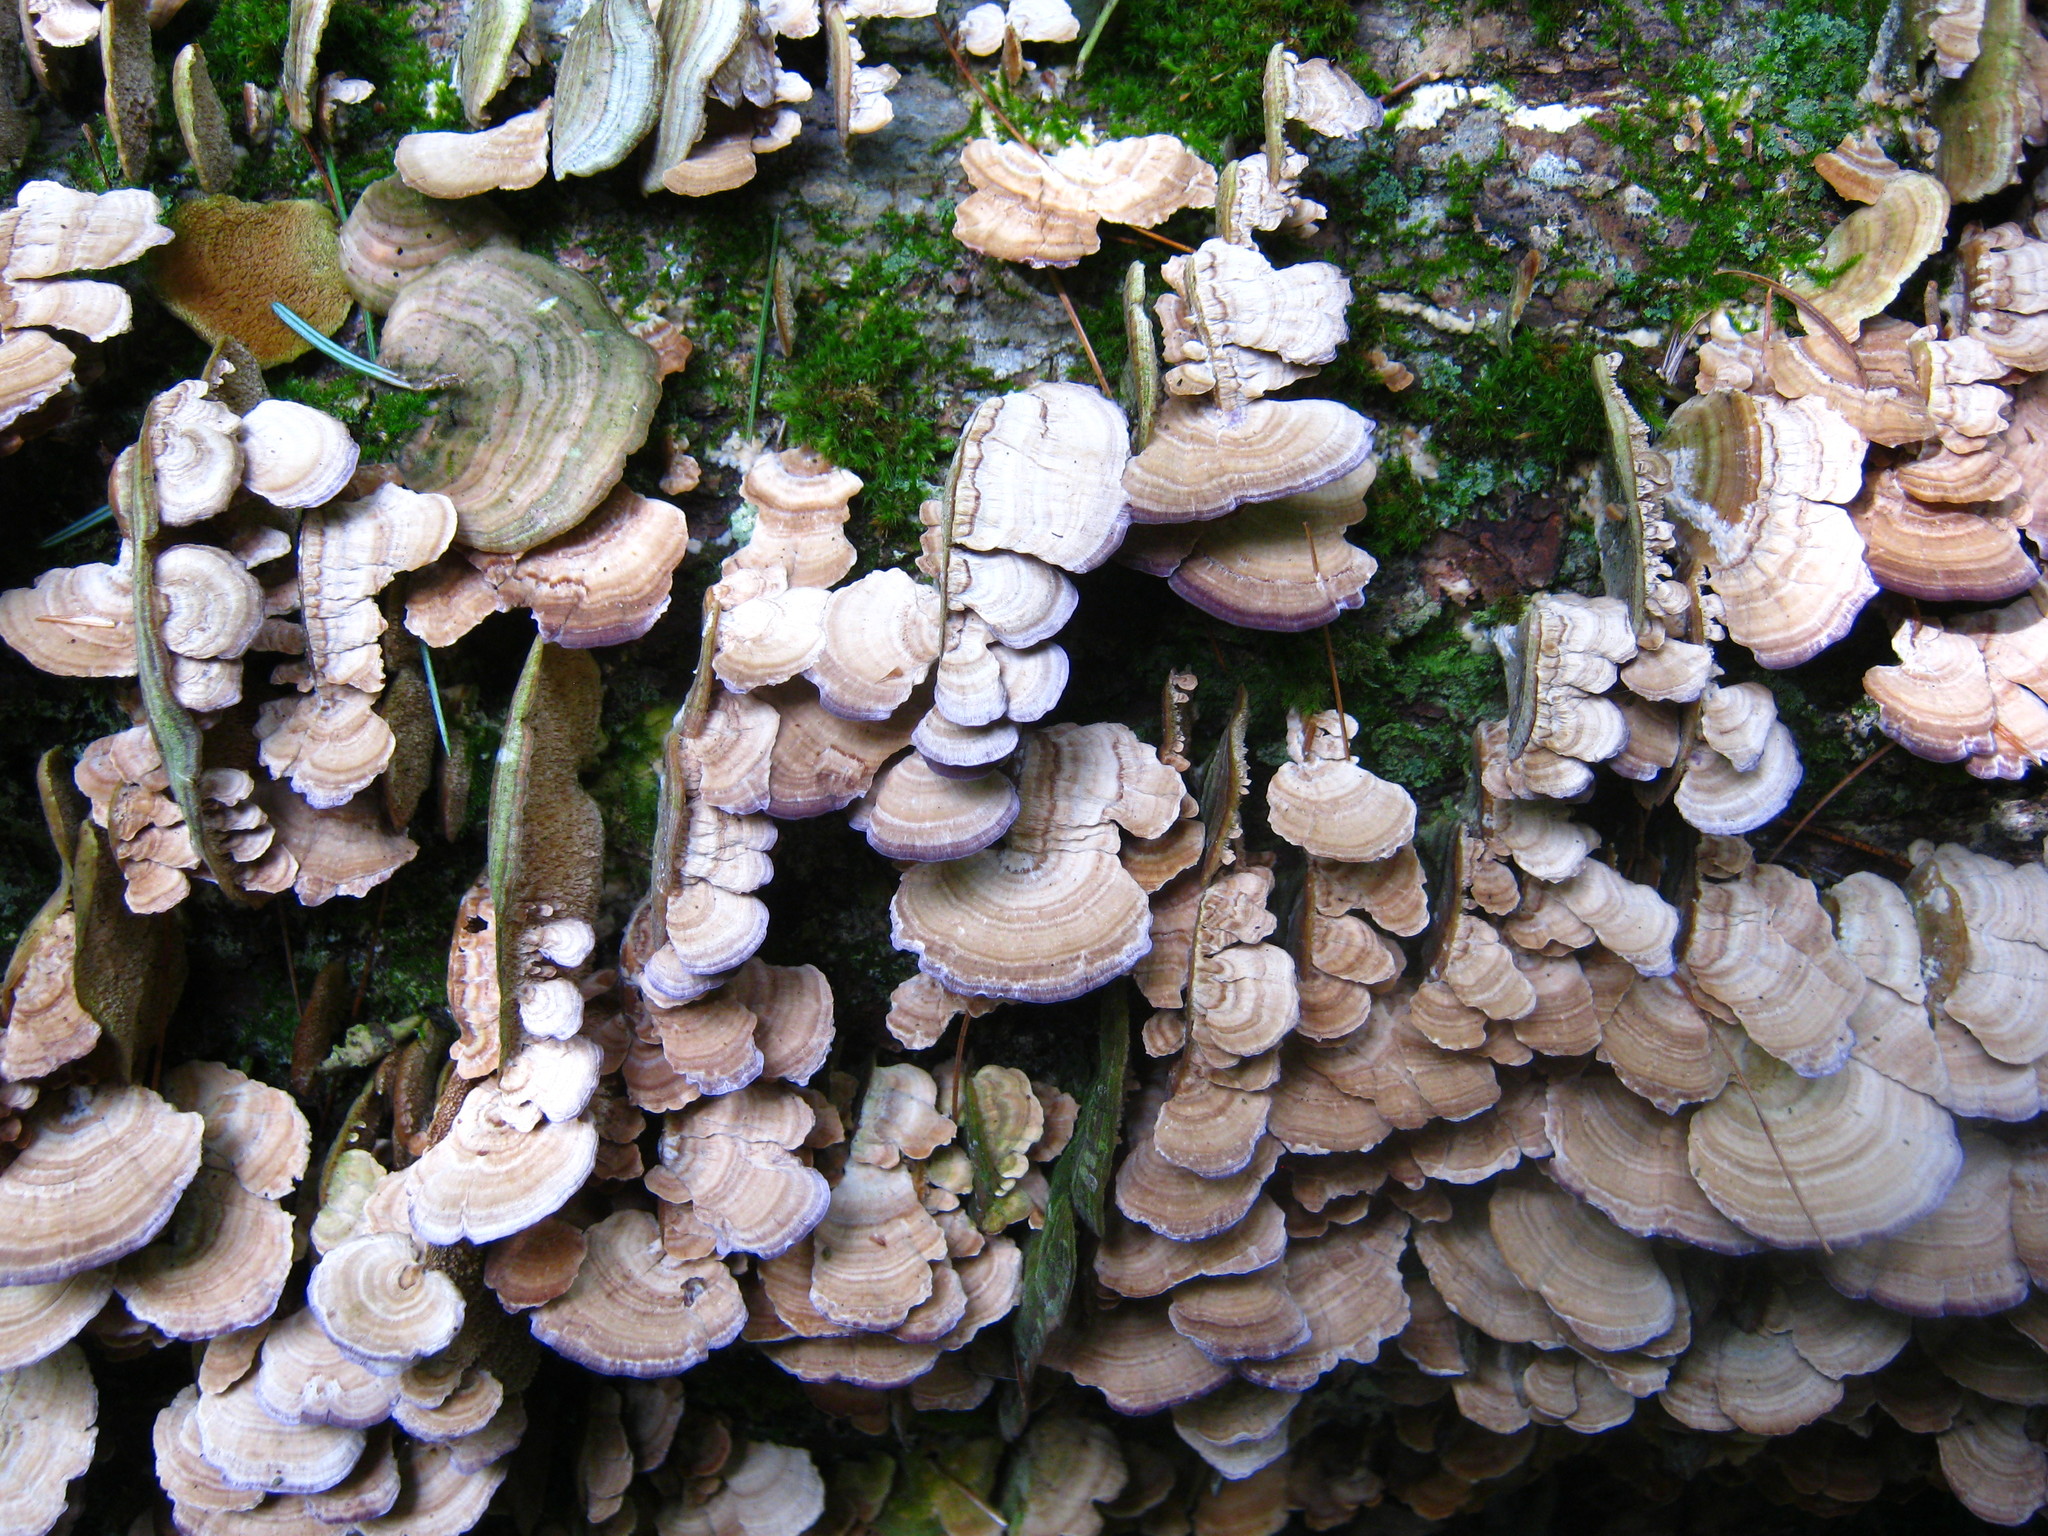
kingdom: Fungi
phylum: Basidiomycota
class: Agaricomycetes
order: Hymenochaetales
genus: Trichaptum
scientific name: Trichaptum biforme
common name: Violet-toothed polypore
